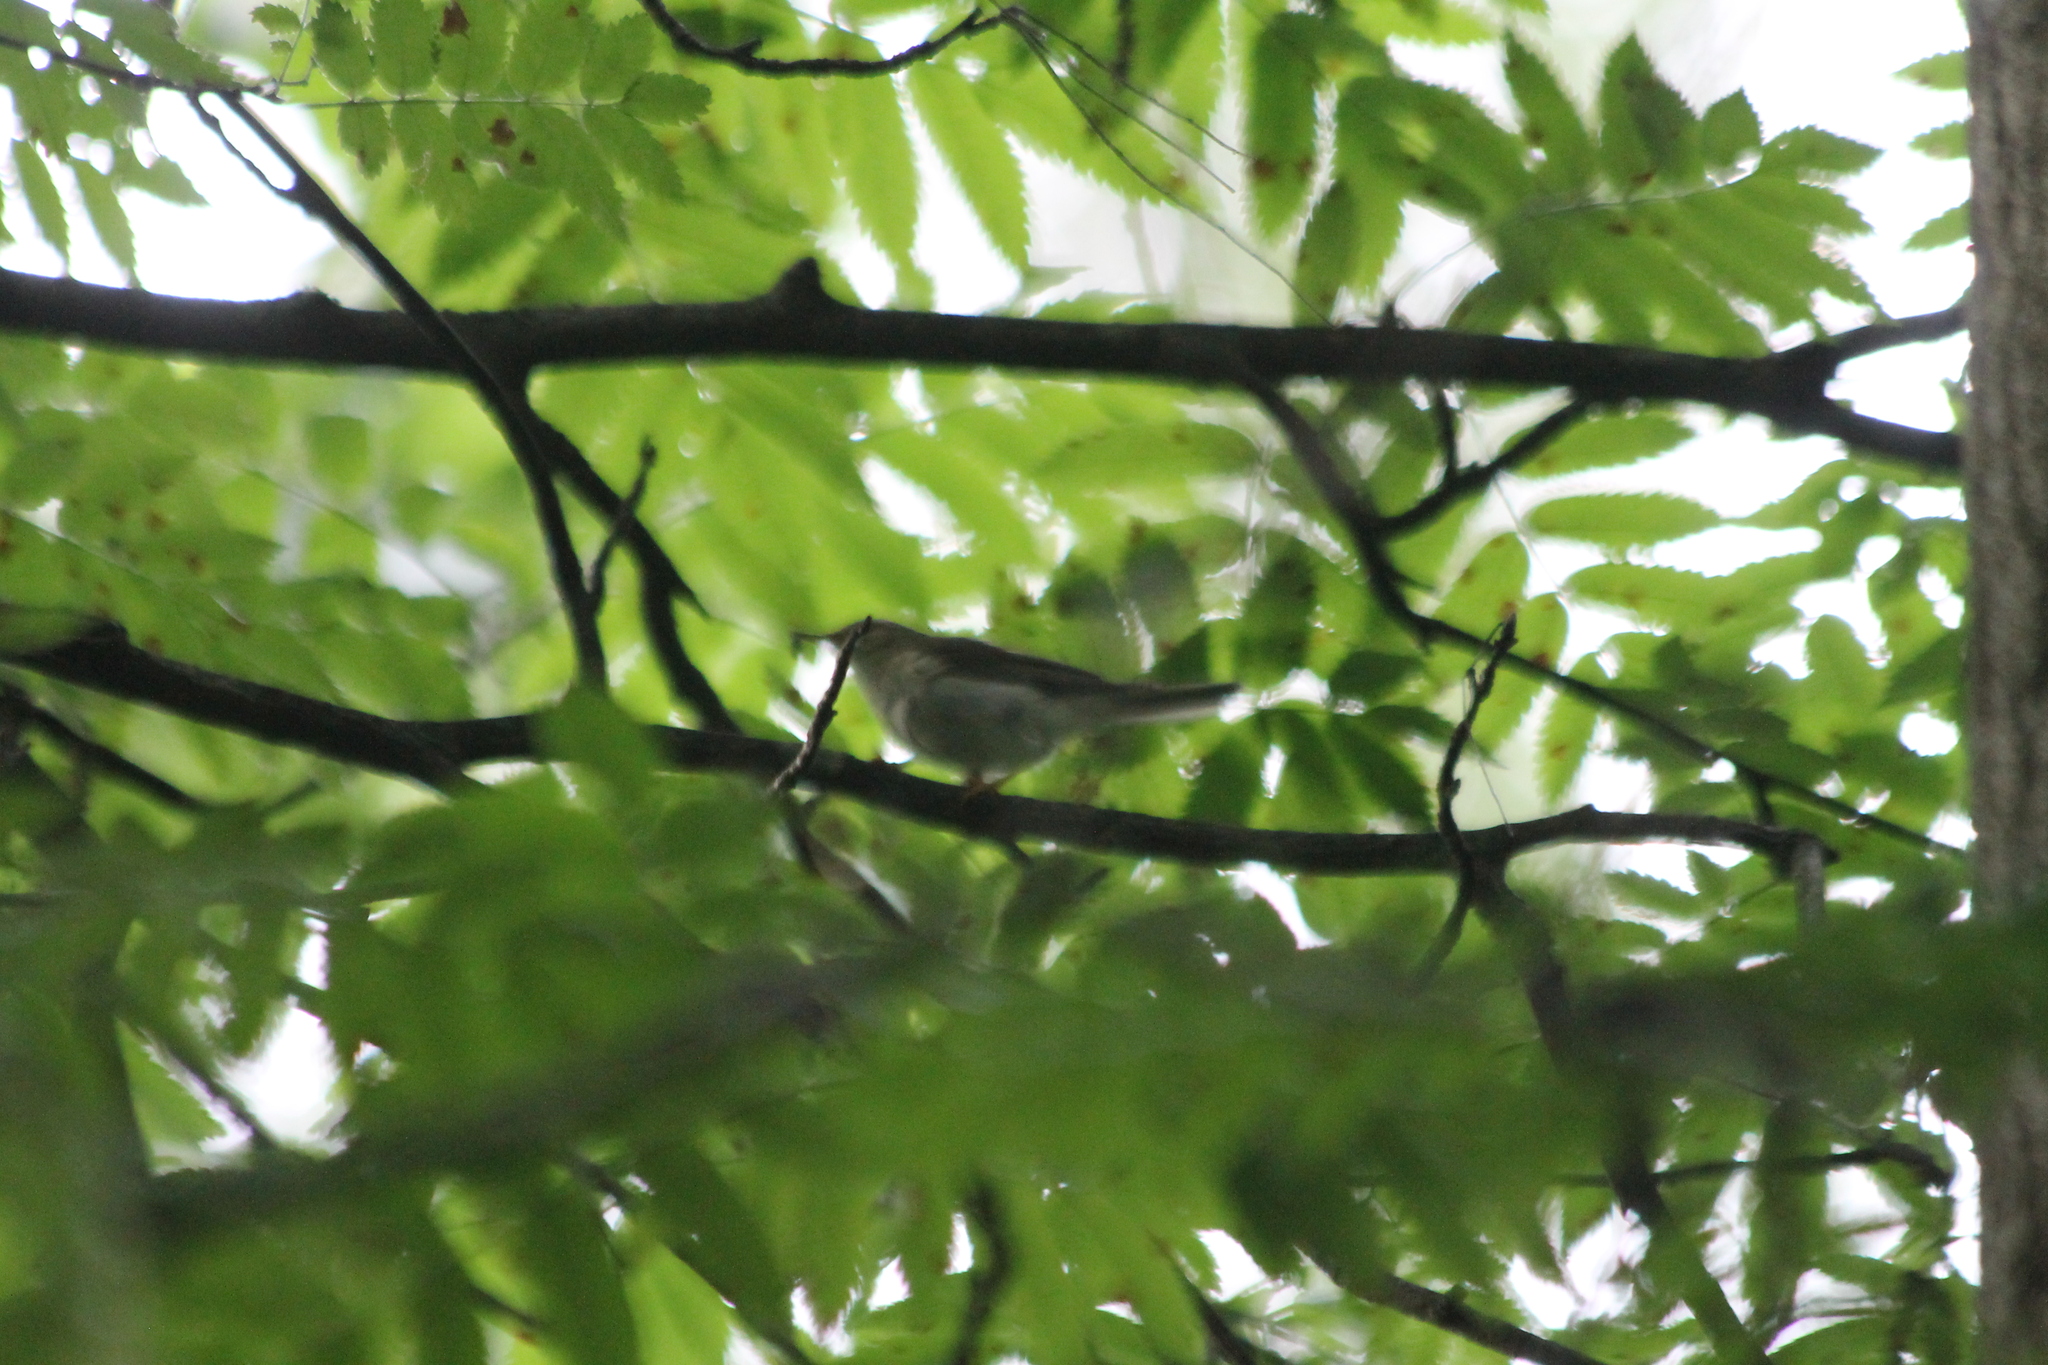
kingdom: Animalia
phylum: Chordata
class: Aves
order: Passeriformes
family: Phylloscopidae
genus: Phylloscopus
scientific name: Phylloscopus trochilus
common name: Willow warbler
